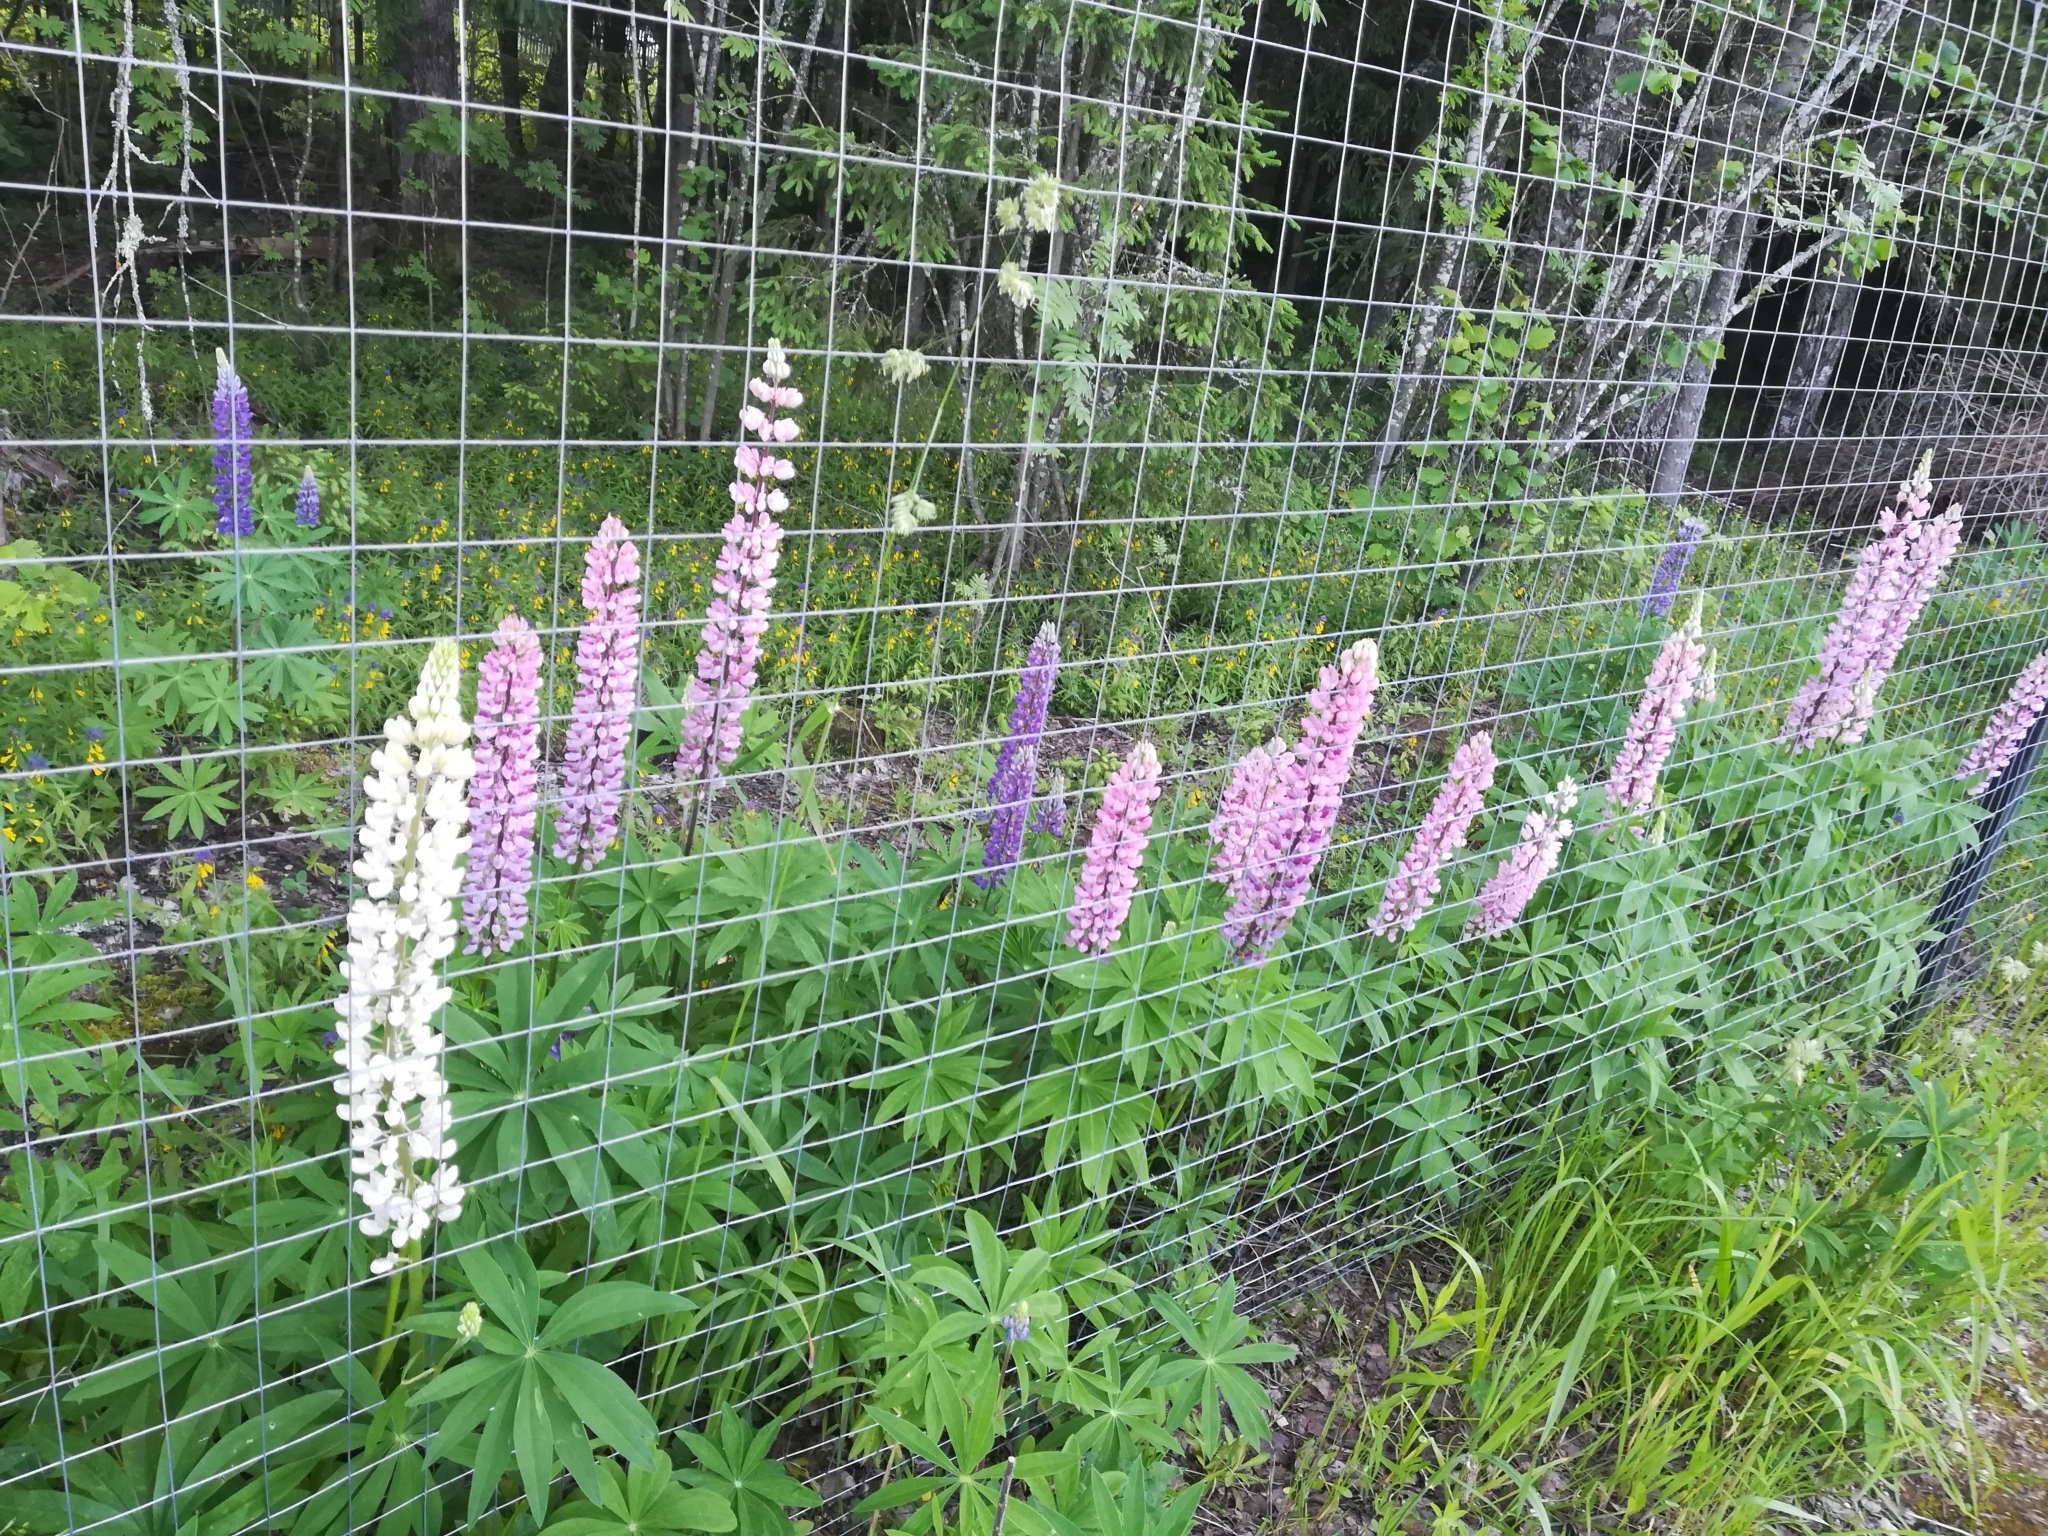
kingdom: Plantae
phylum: Tracheophyta
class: Magnoliopsida
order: Fabales
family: Fabaceae
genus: Lupinus
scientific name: Lupinus polyphyllus
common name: Garden lupin
